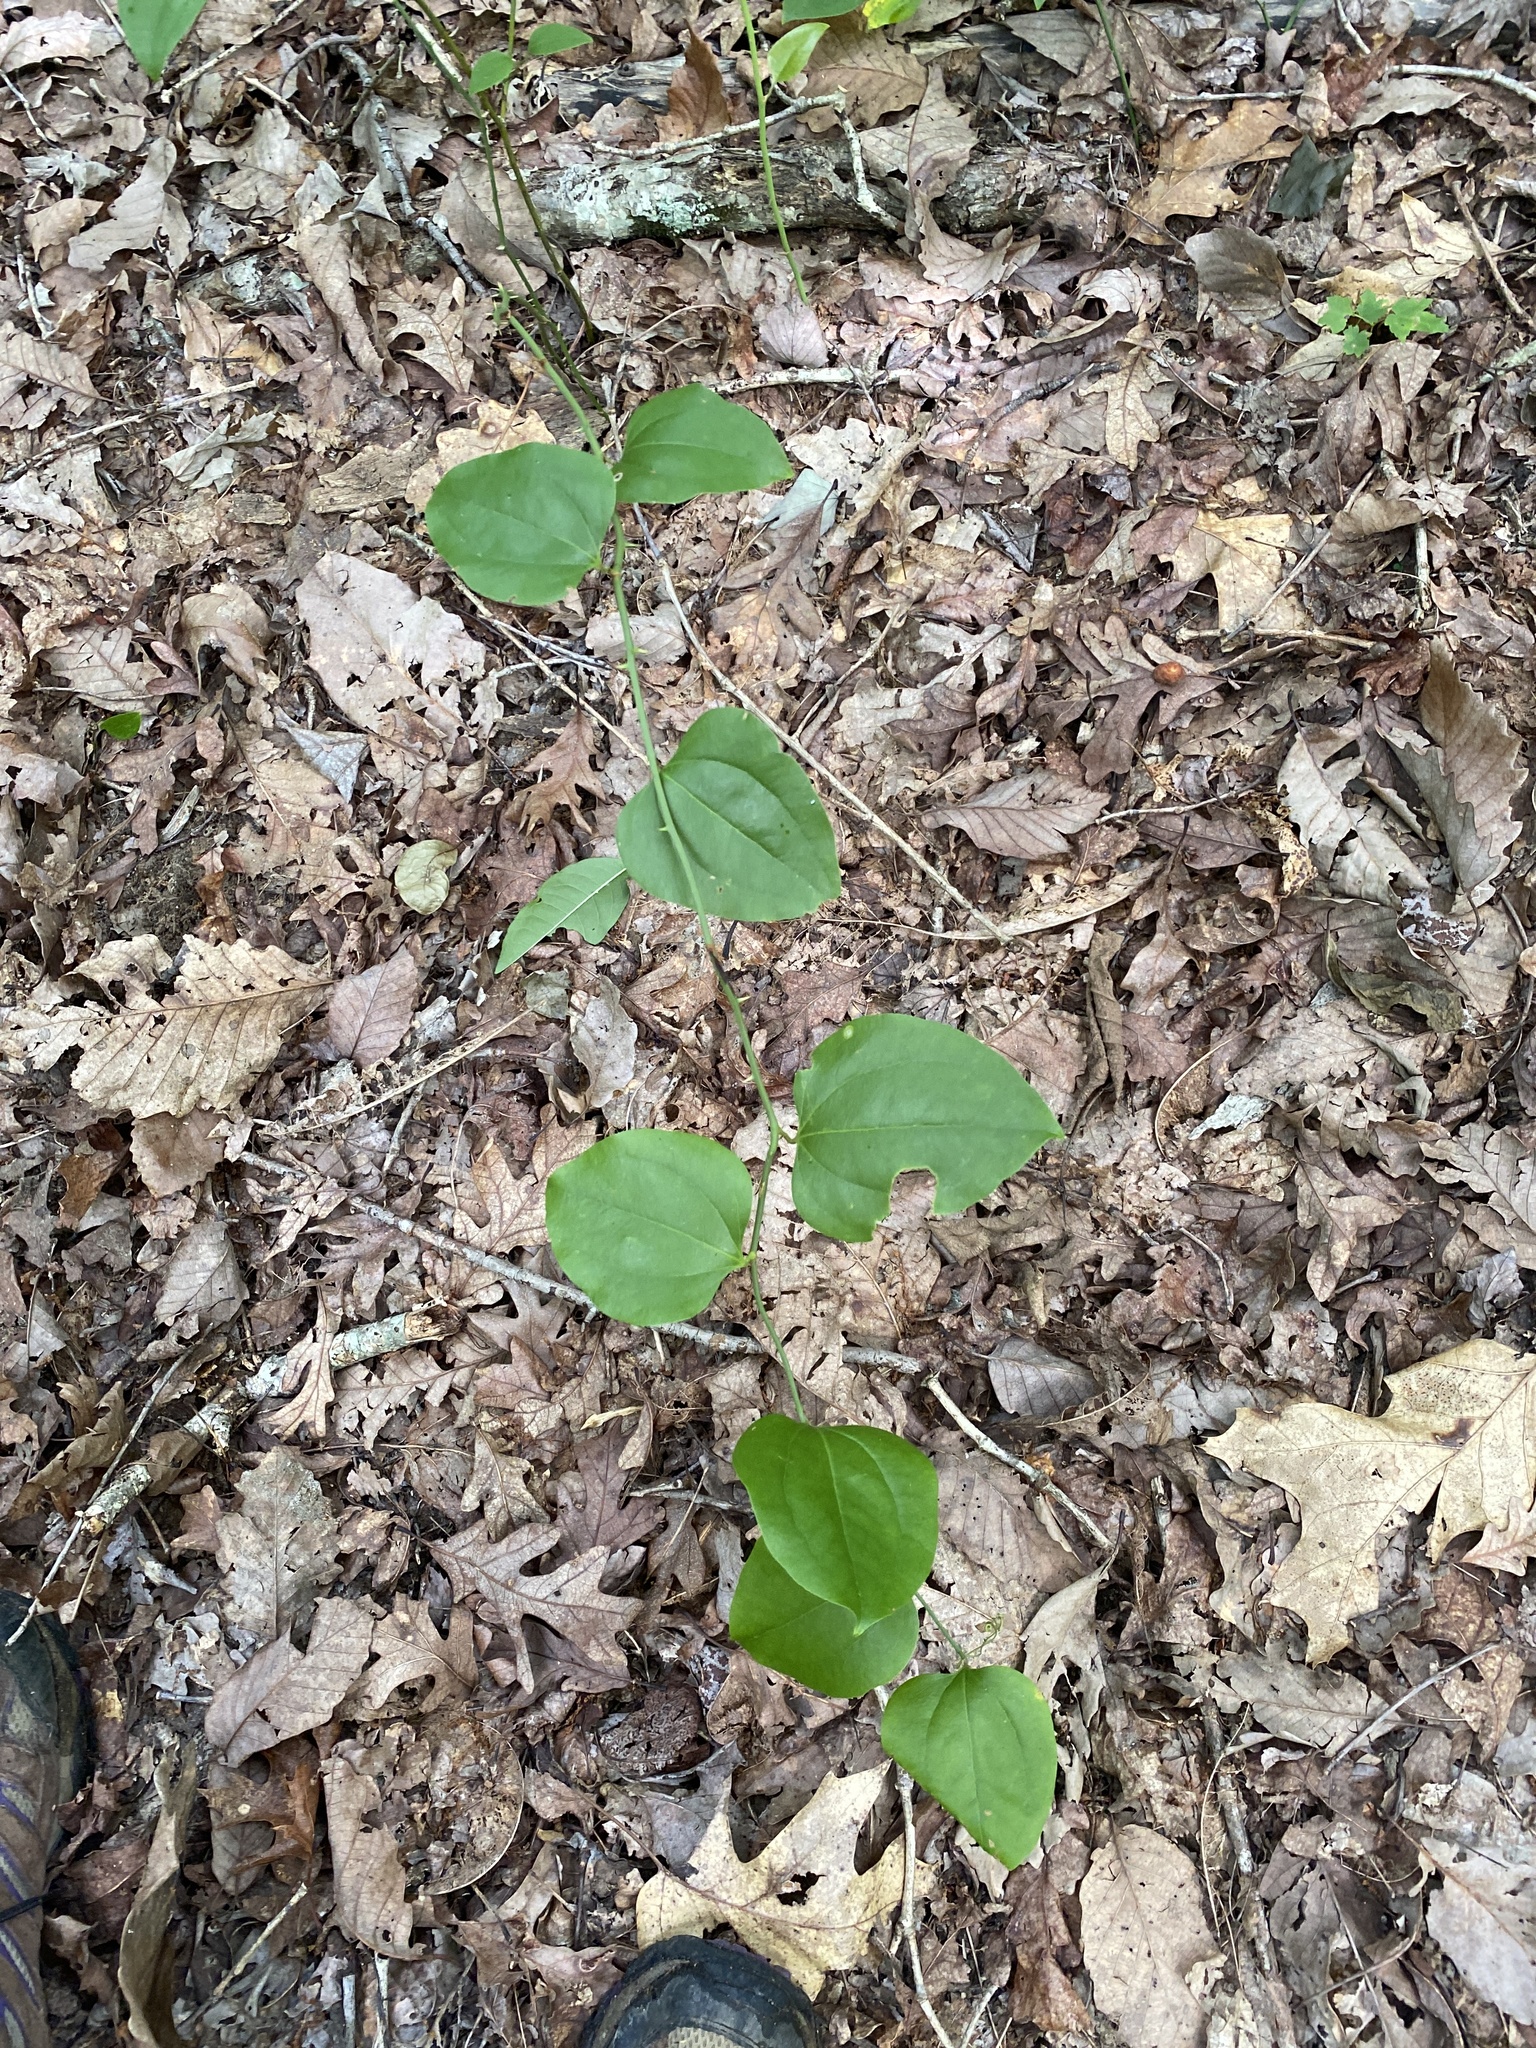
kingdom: Plantae
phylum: Tracheophyta
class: Liliopsida
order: Liliales
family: Smilacaceae
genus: Smilax
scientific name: Smilax rotundifolia
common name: Bullbriar
